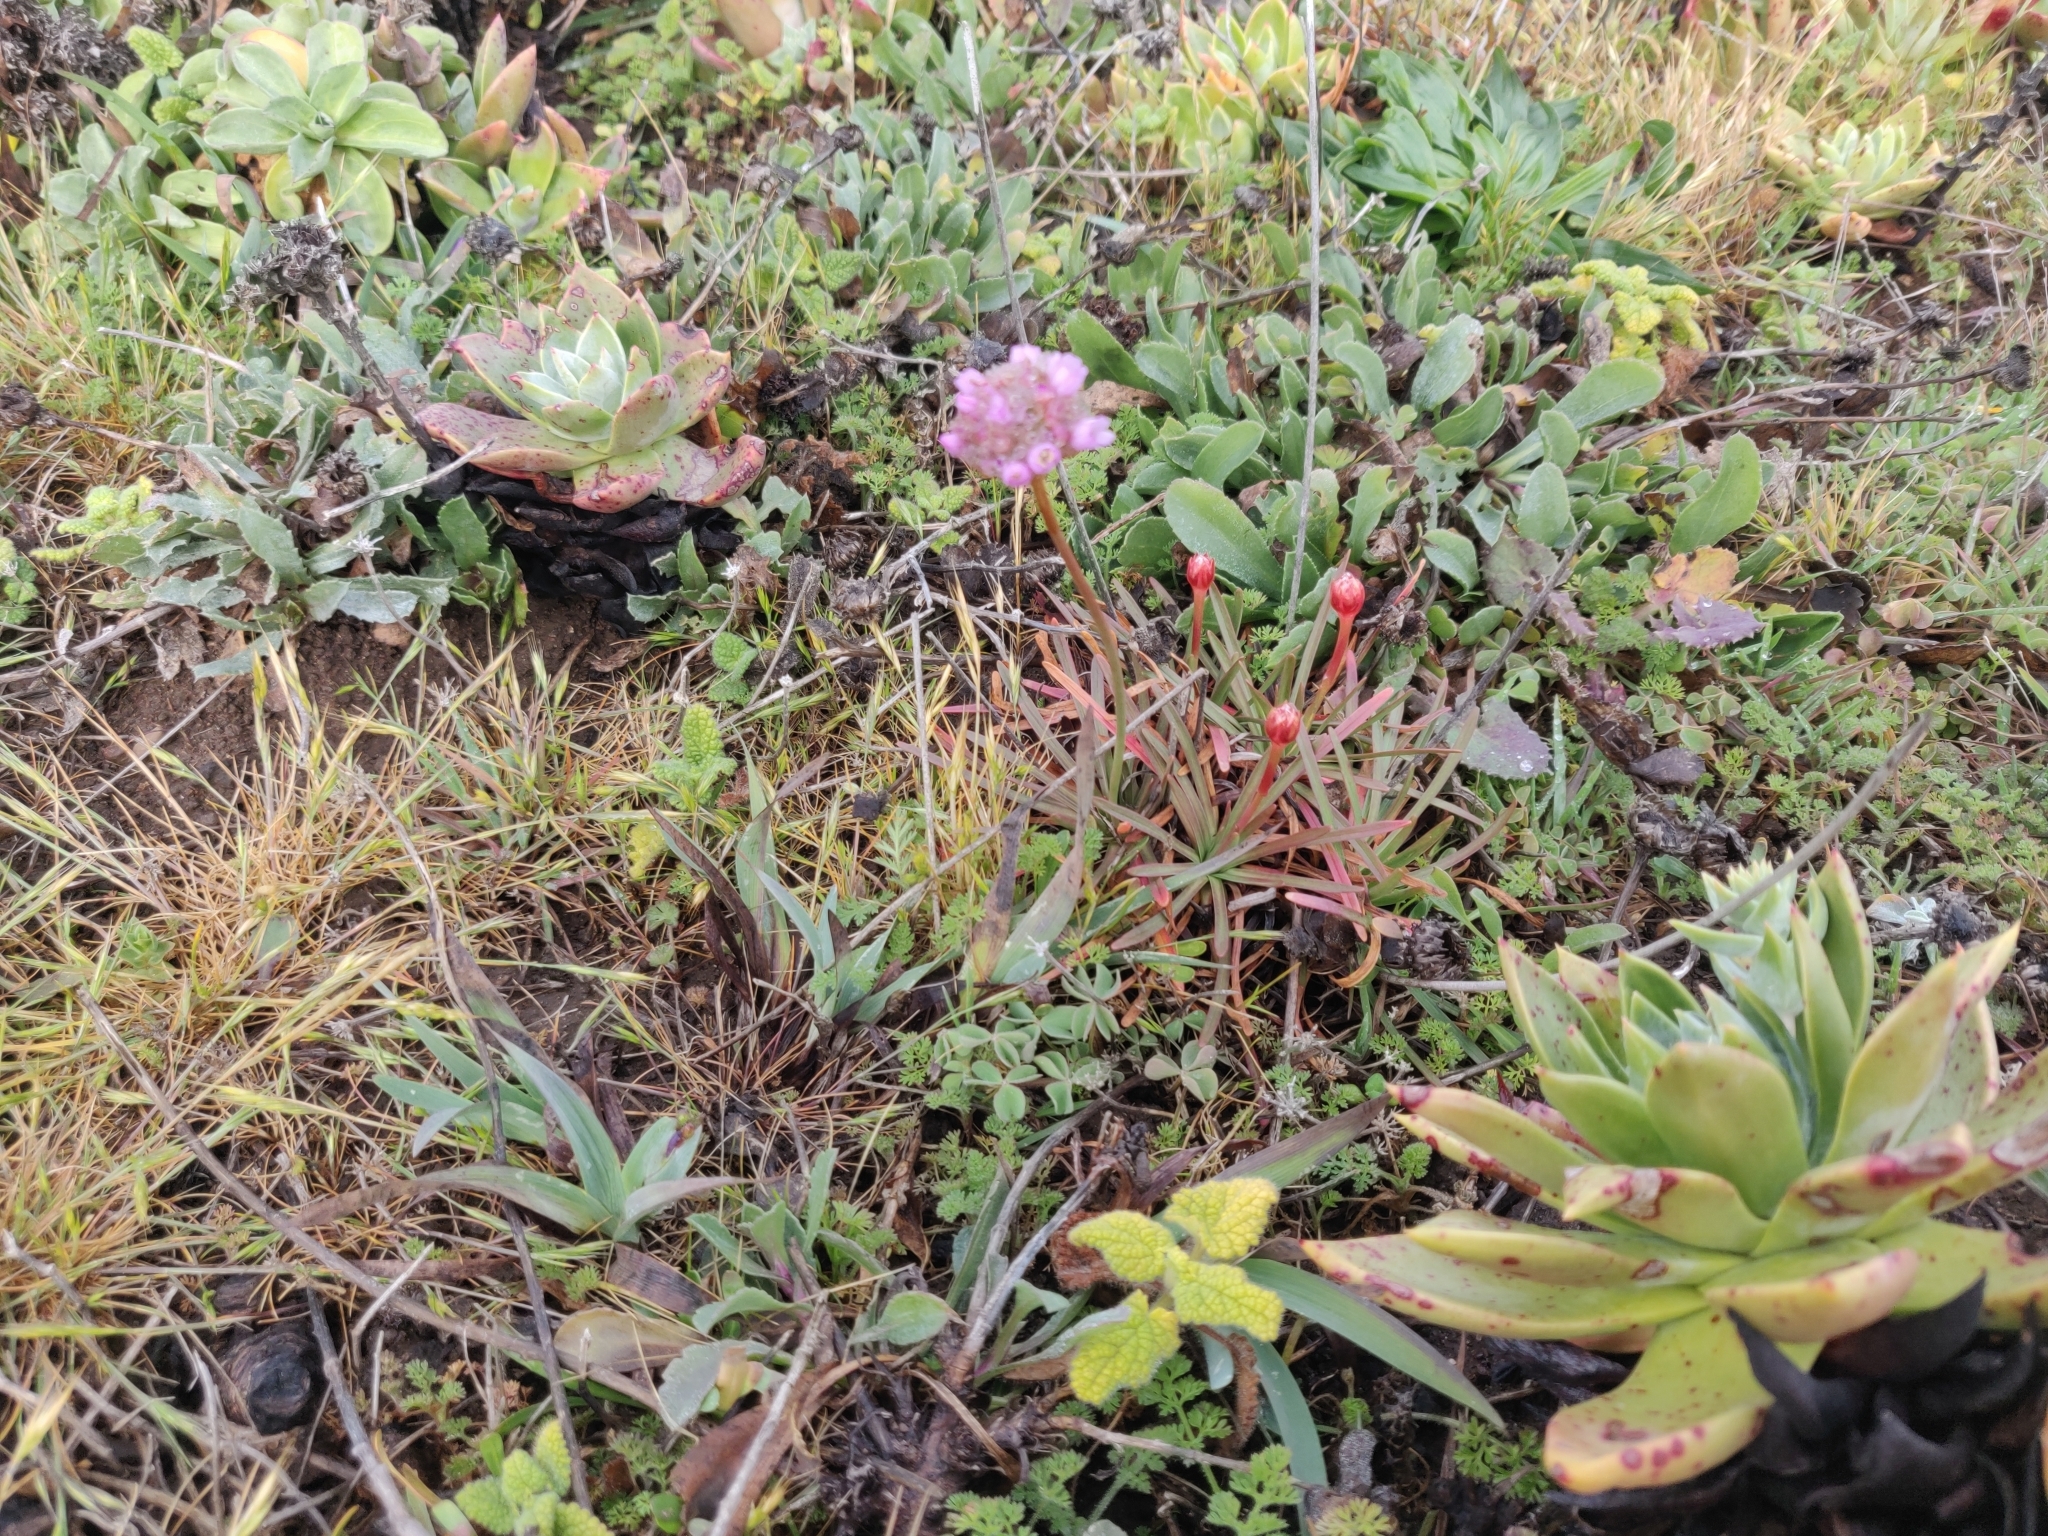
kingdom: Plantae
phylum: Tracheophyta
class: Magnoliopsida
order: Caryophyllales
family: Plumbaginaceae
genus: Armeria
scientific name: Armeria maritima
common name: Thrift
